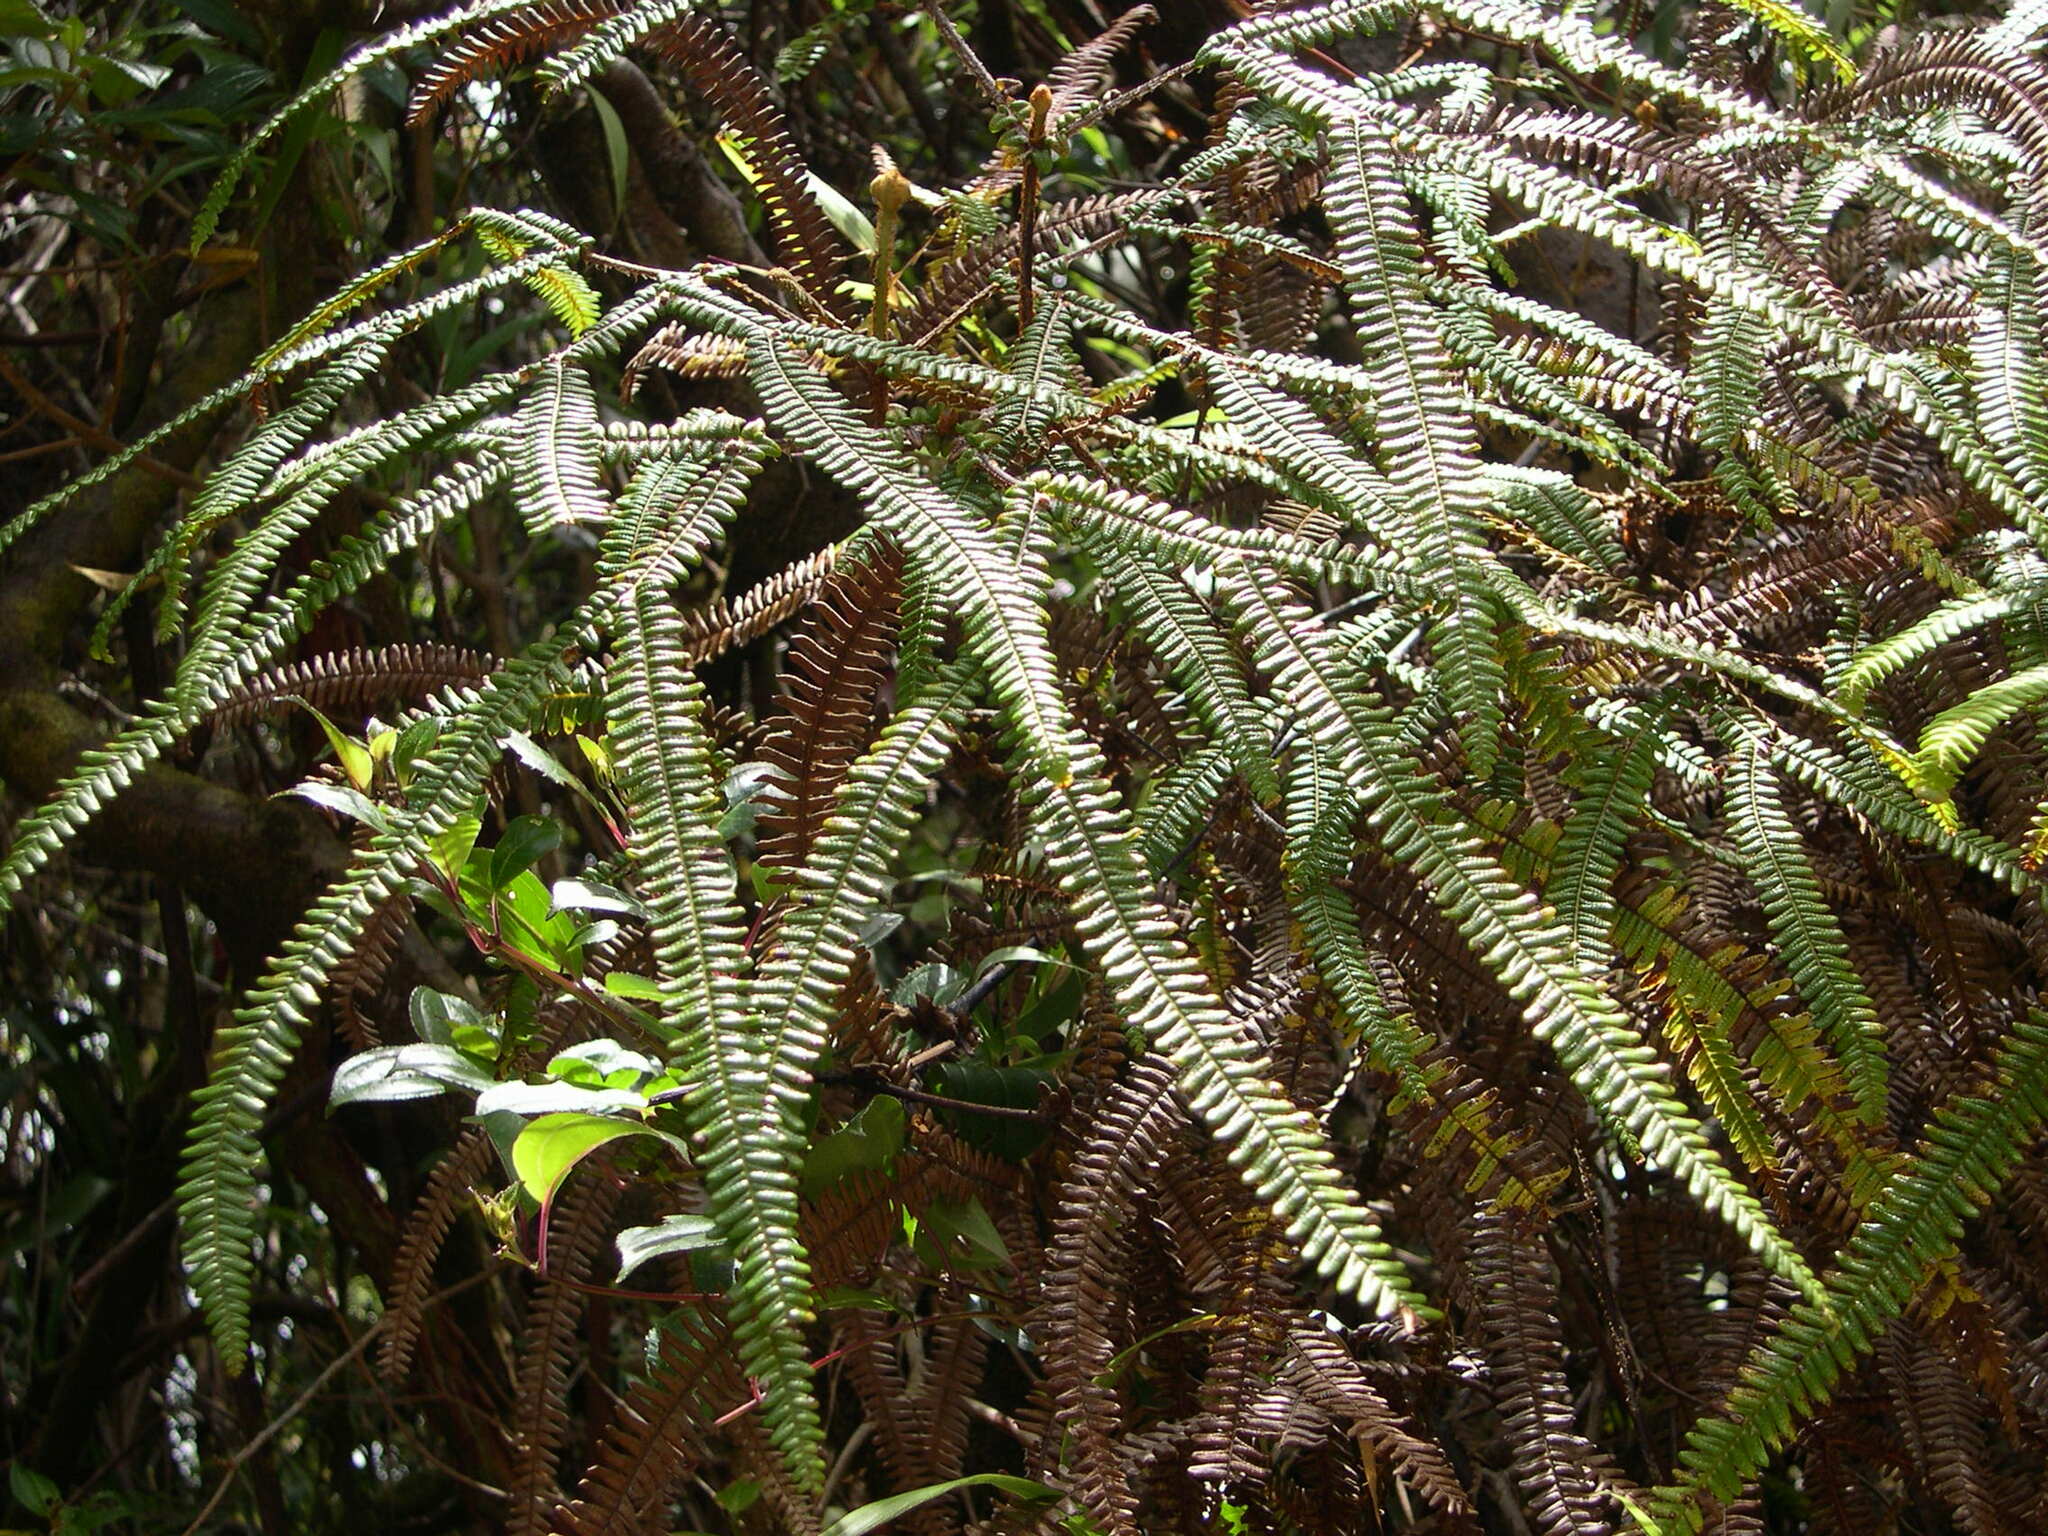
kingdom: Plantae
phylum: Tracheophyta
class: Polypodiopsida
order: Gleicheniales
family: Gleicheniaceae
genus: Sticherus
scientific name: Sticherus bifidus
